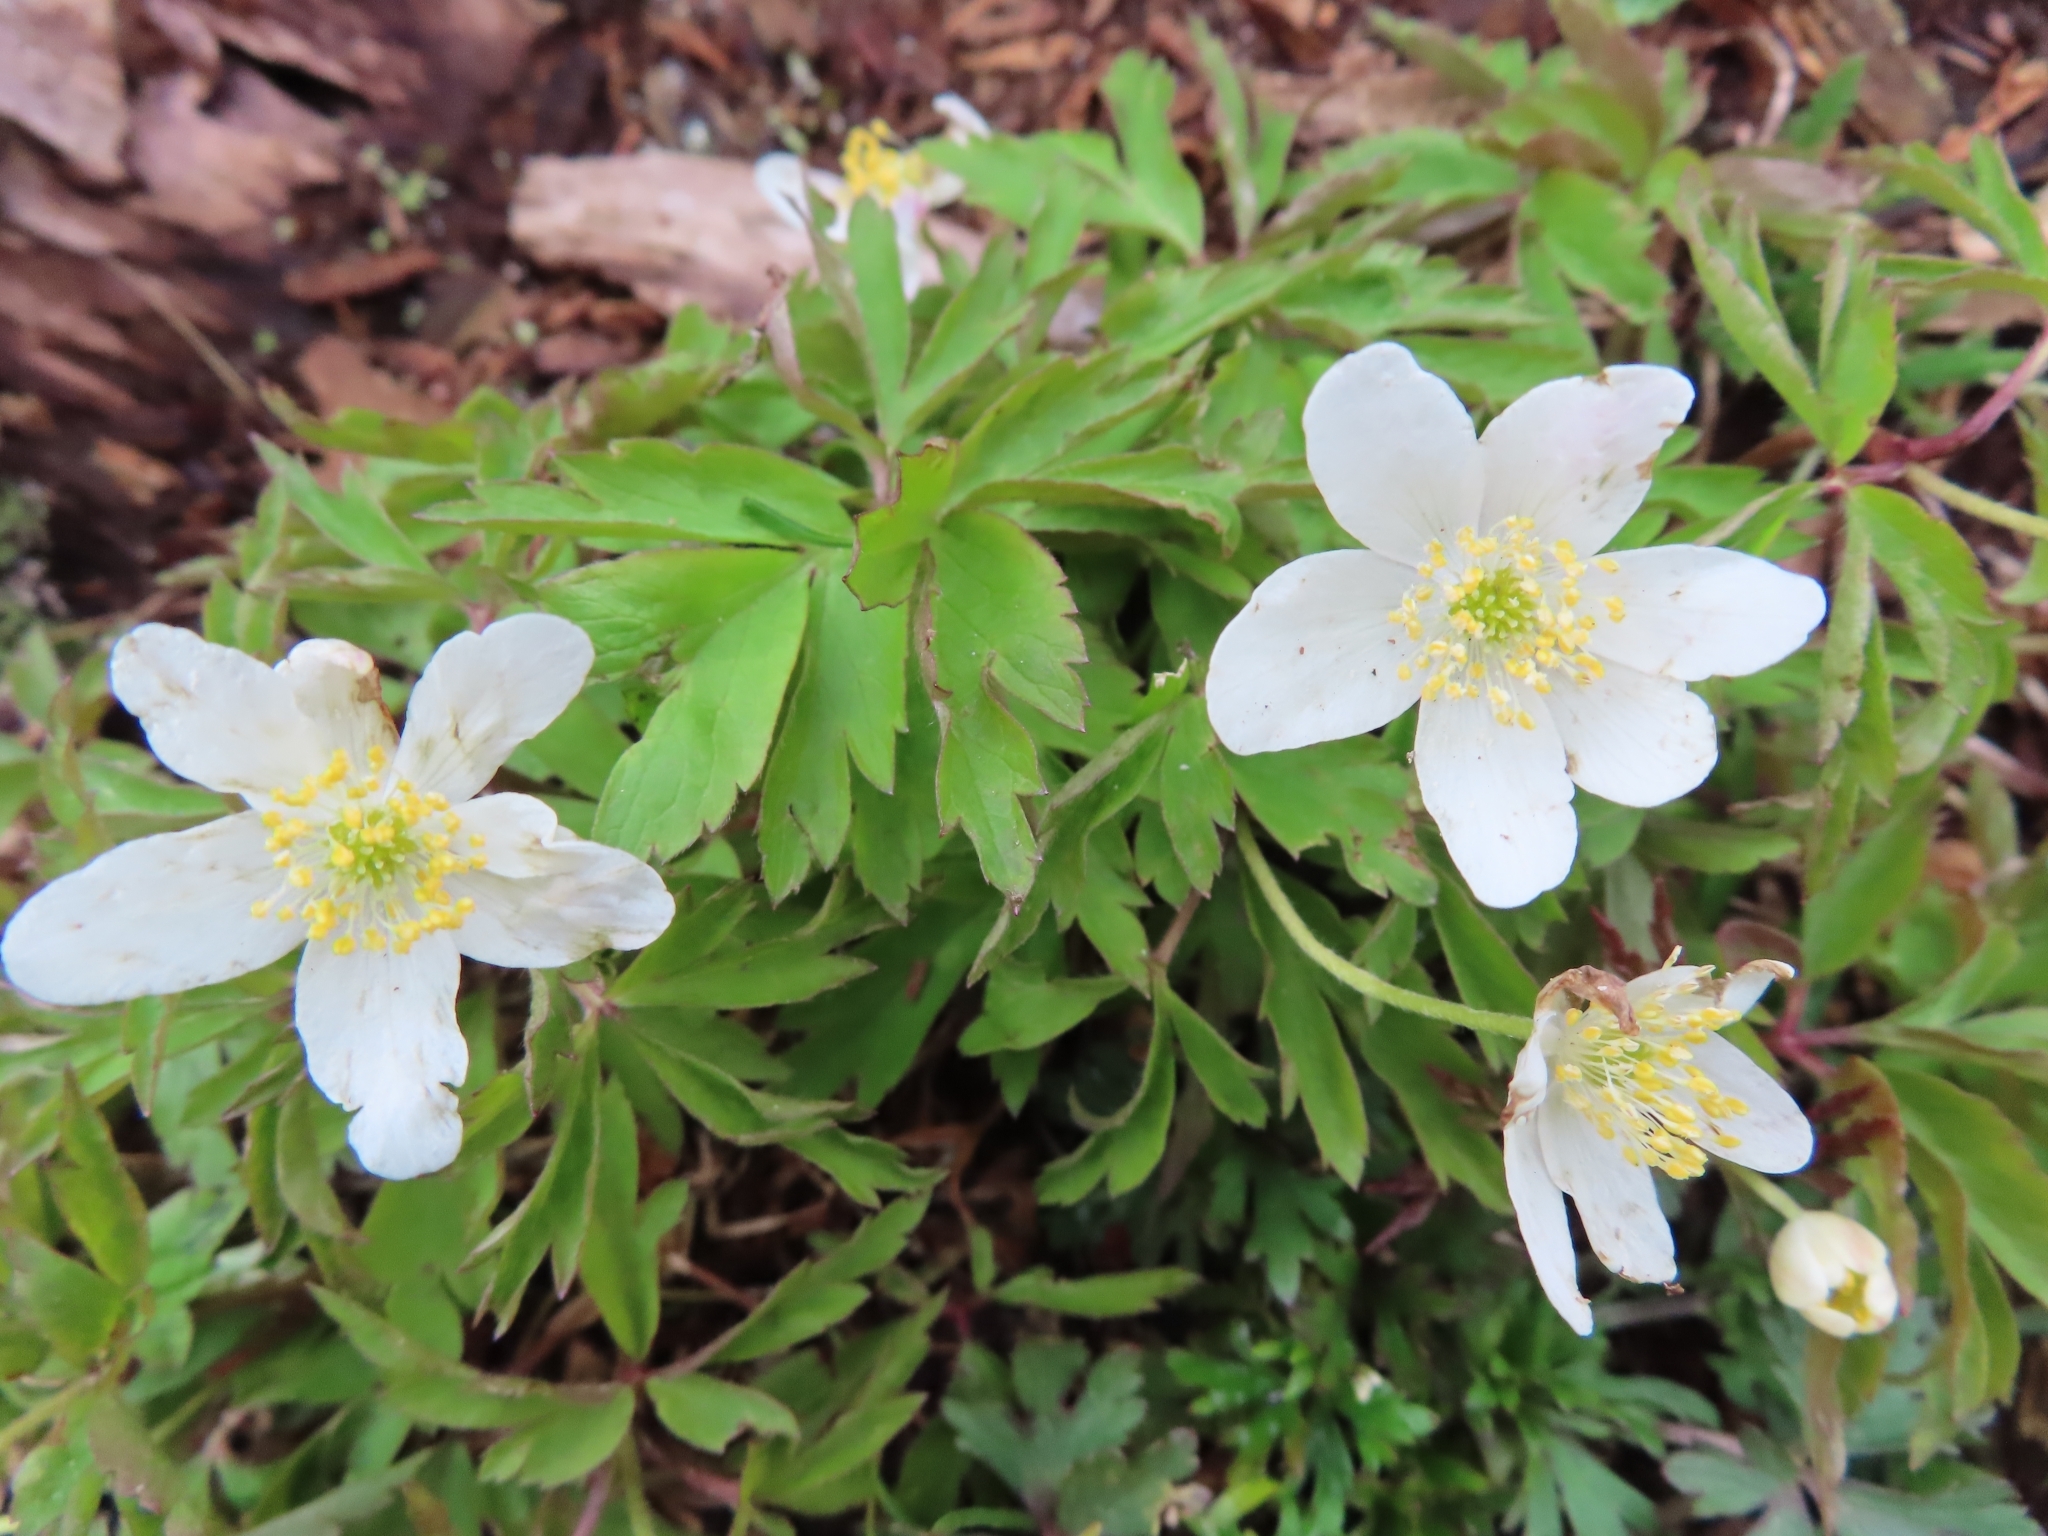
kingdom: Plantae
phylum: Tracheophyta
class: Magnoliopsida
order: Ranunculales
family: Ranunculaceae
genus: Anemone
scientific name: Anemone nemorosa
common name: Wood anemone
